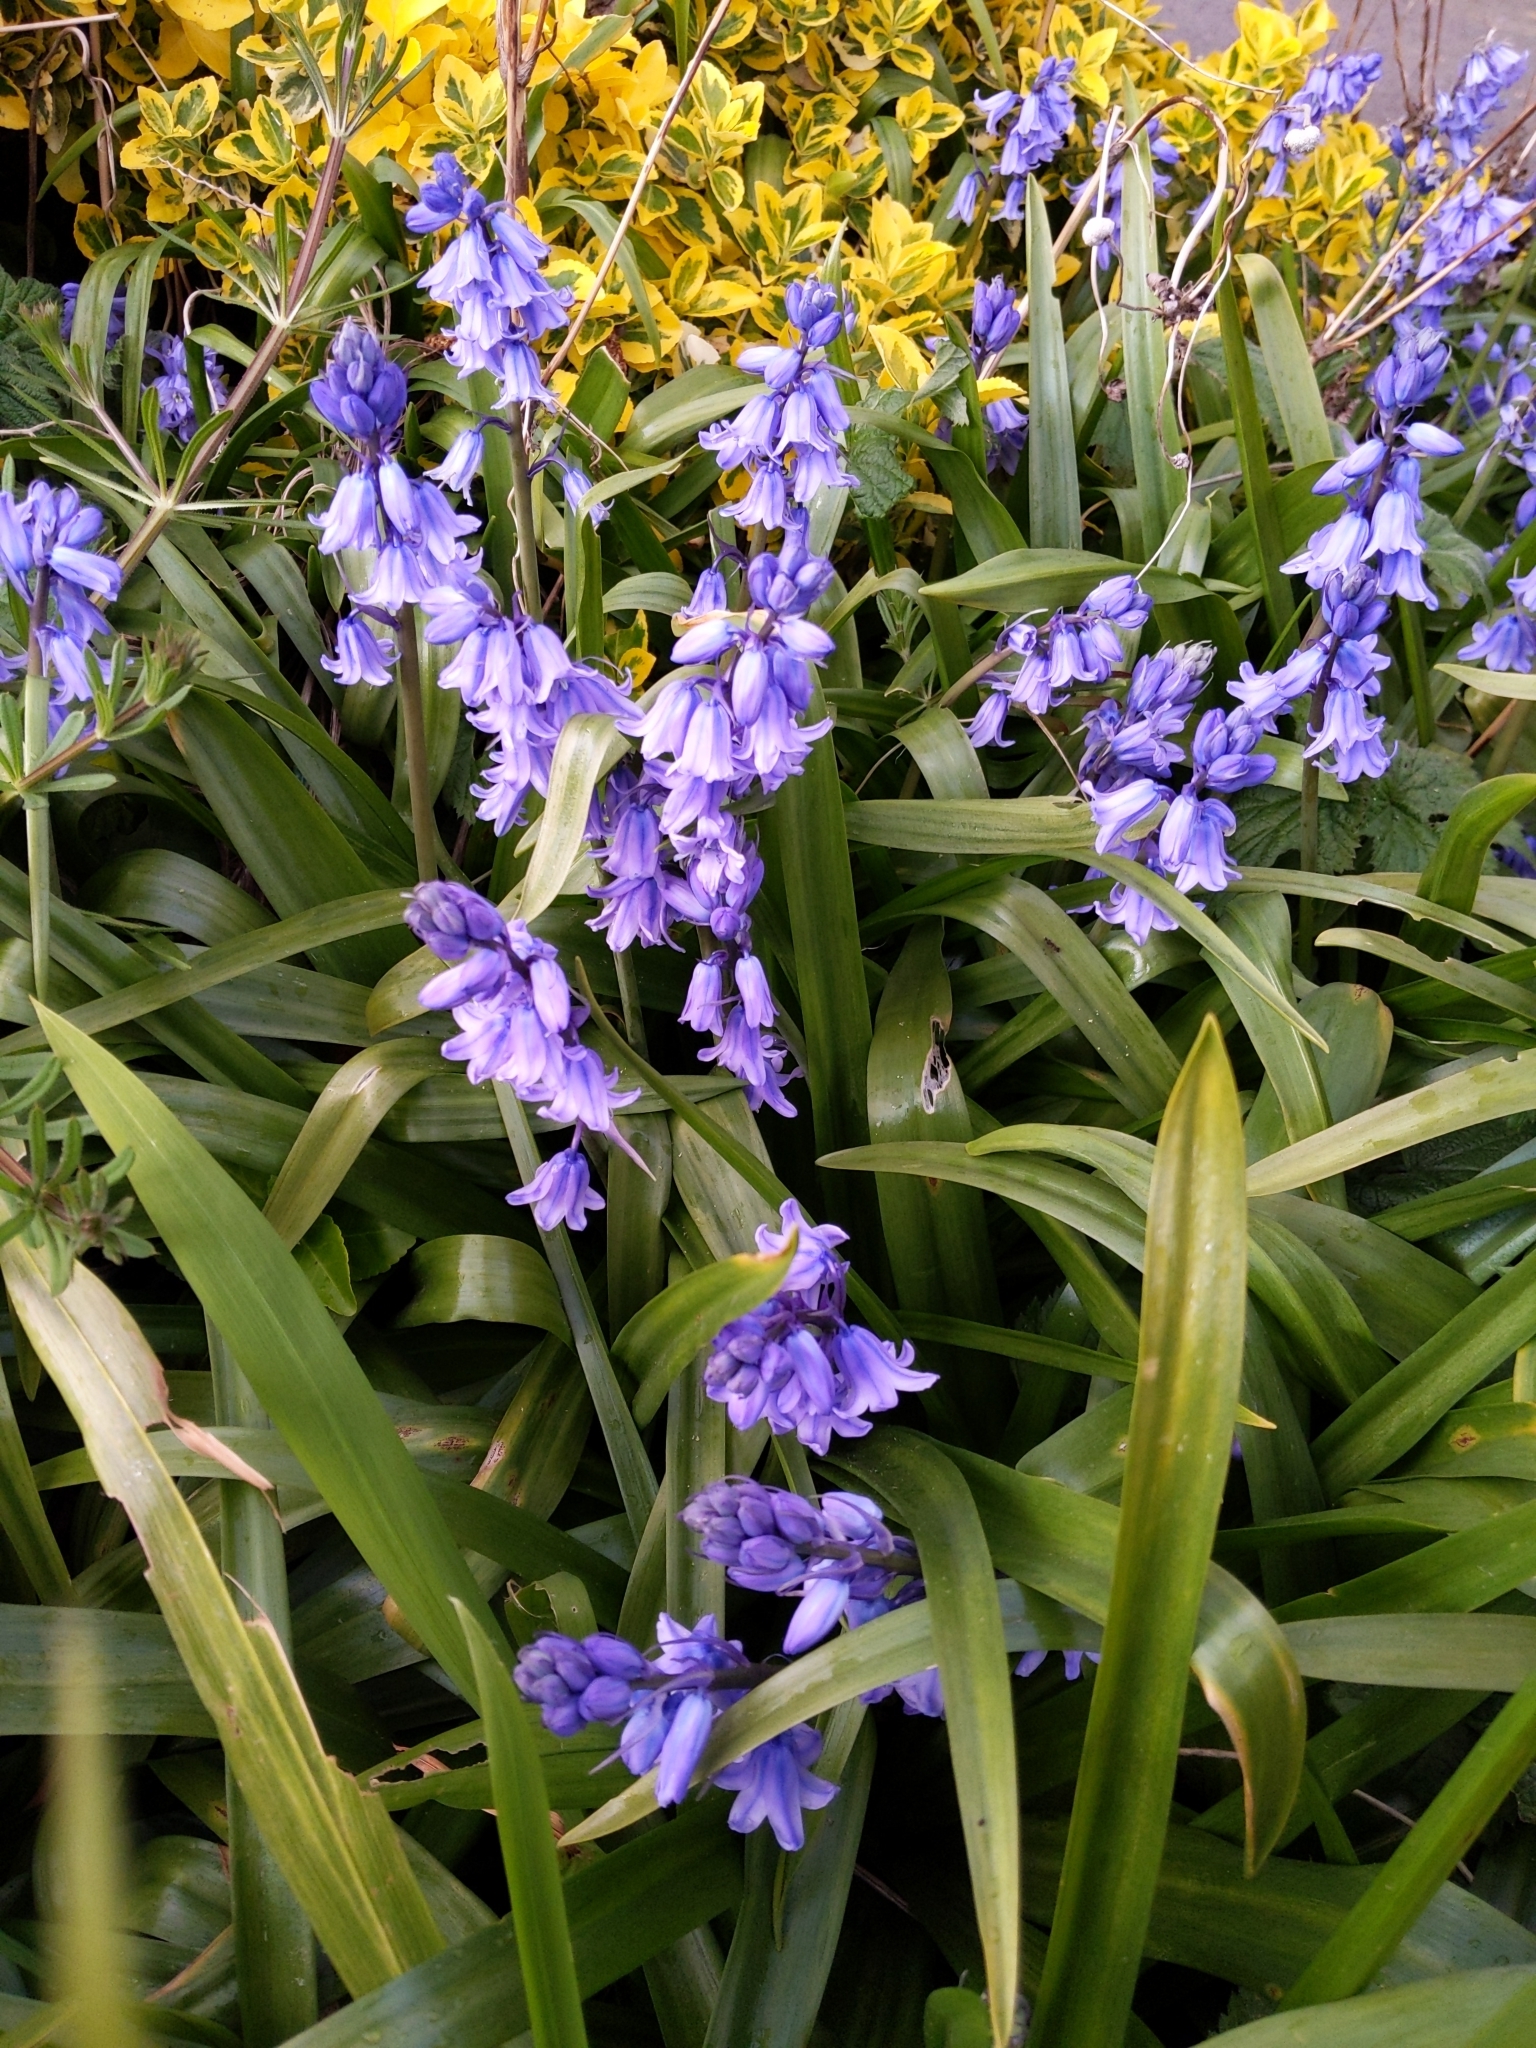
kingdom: Plantae
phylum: Tracheophyta
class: Liliopsida
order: Asparagales
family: Asparagaceae
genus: Hyacinthoides
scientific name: Hyacinthoides massartiana
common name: Hyacinthoides
